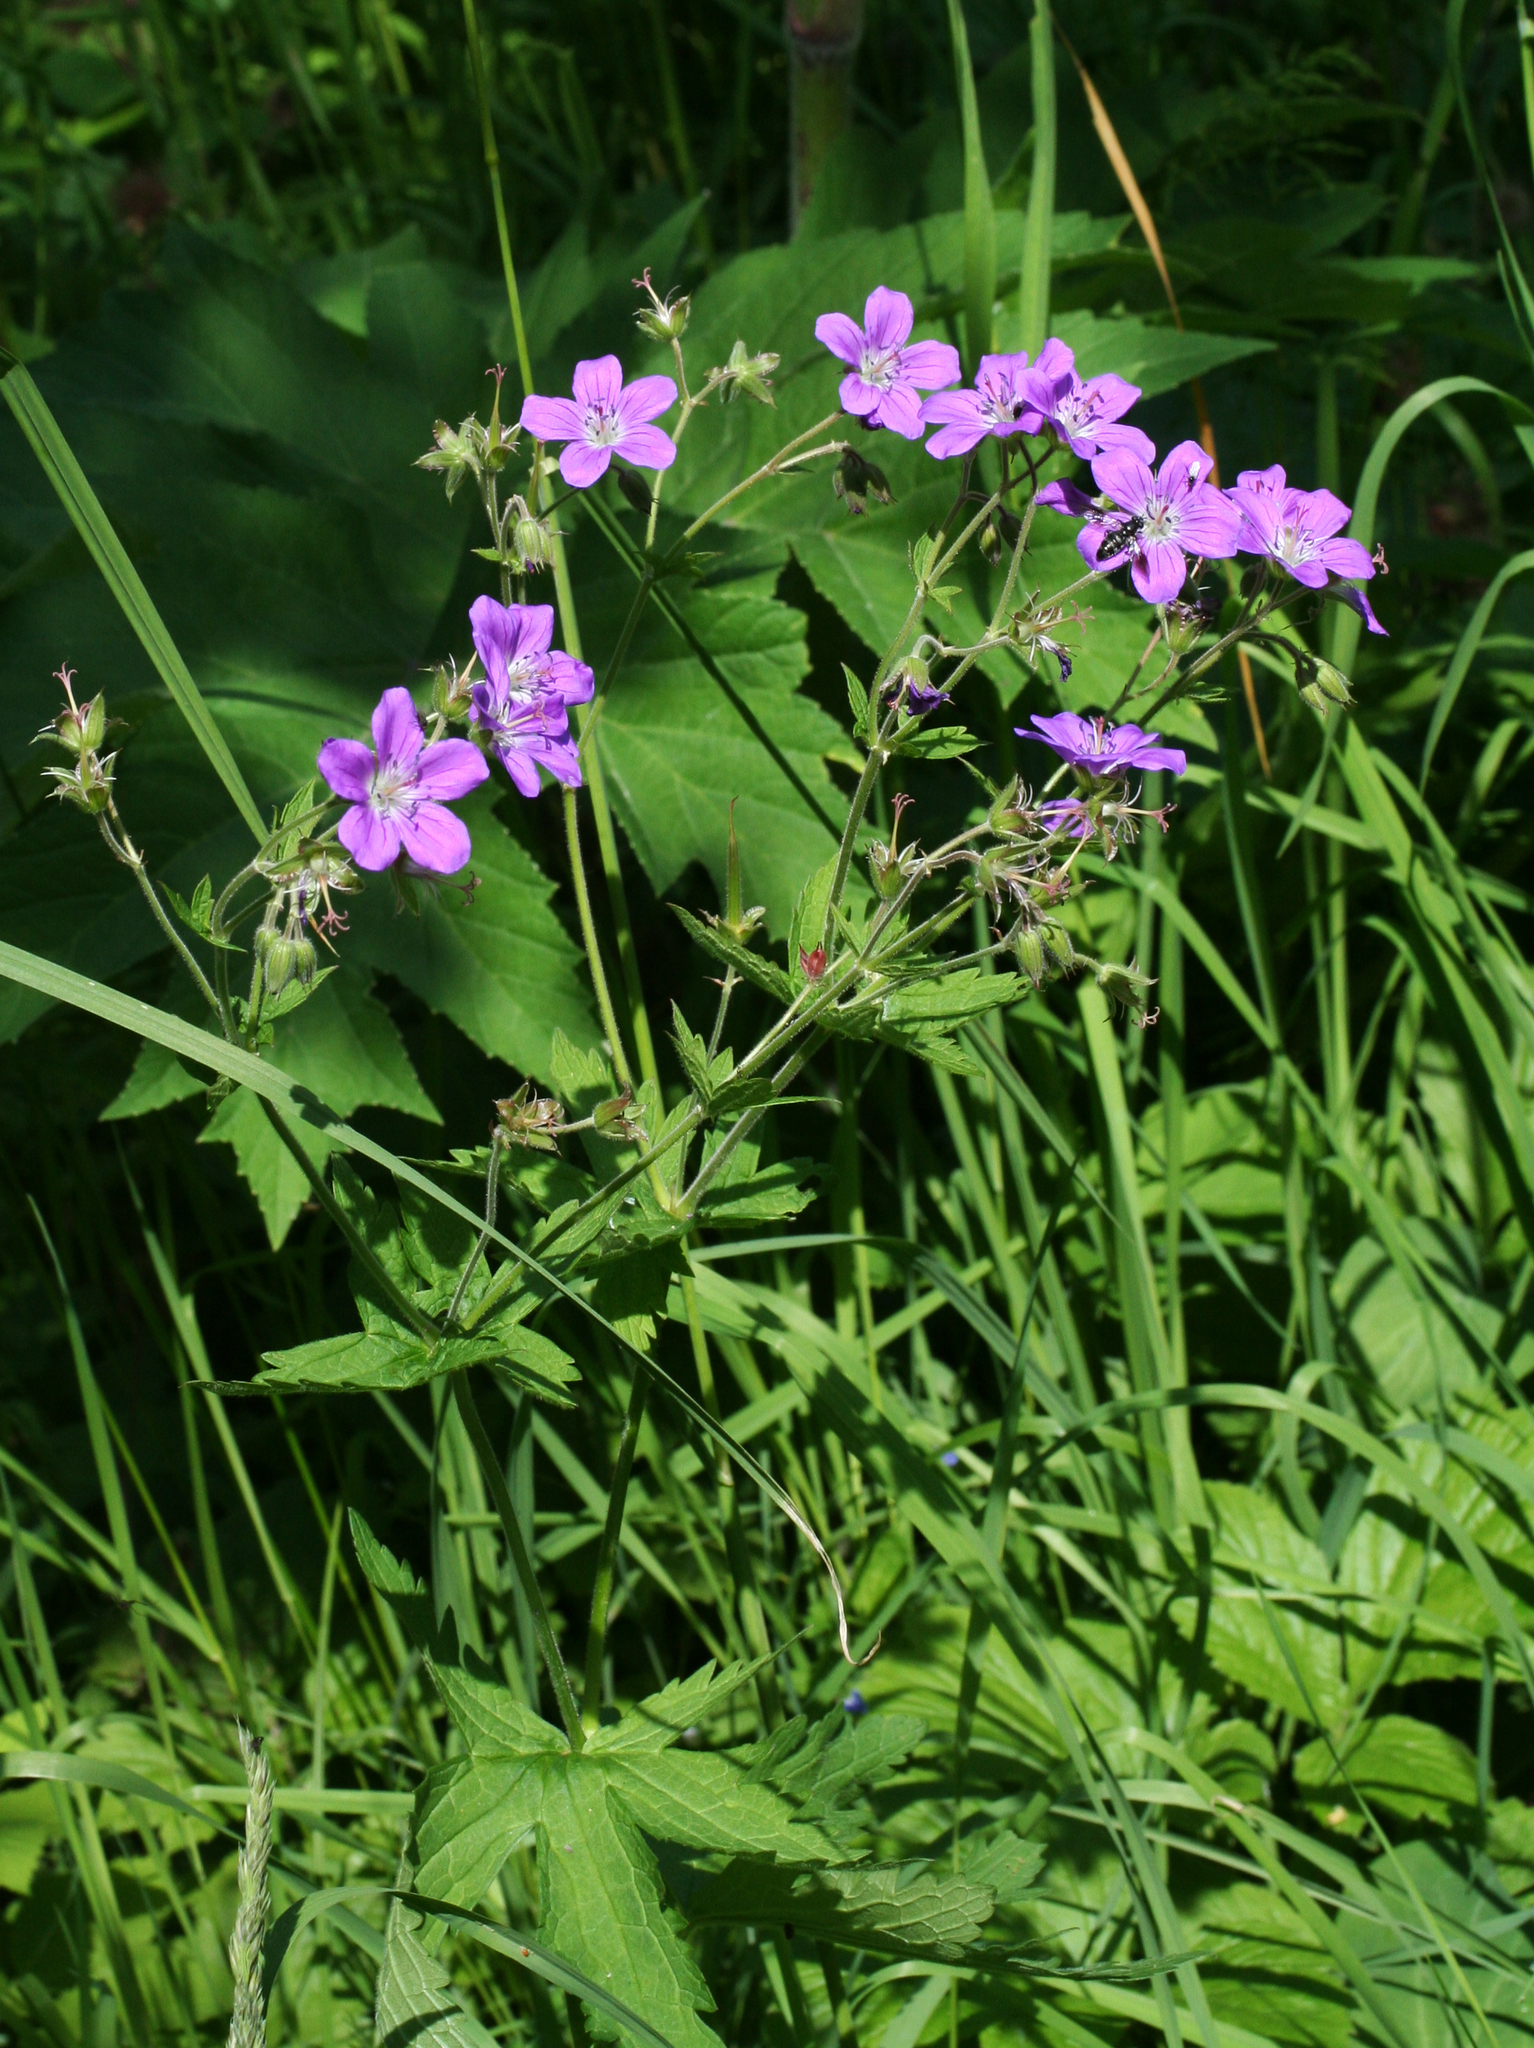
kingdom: Plantae
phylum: Tracheophyta
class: Magnoliopsida
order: Geraniales
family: Geraniaceae
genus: Geranium
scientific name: Geranium sylvaticum
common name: Wood crane's-bill
